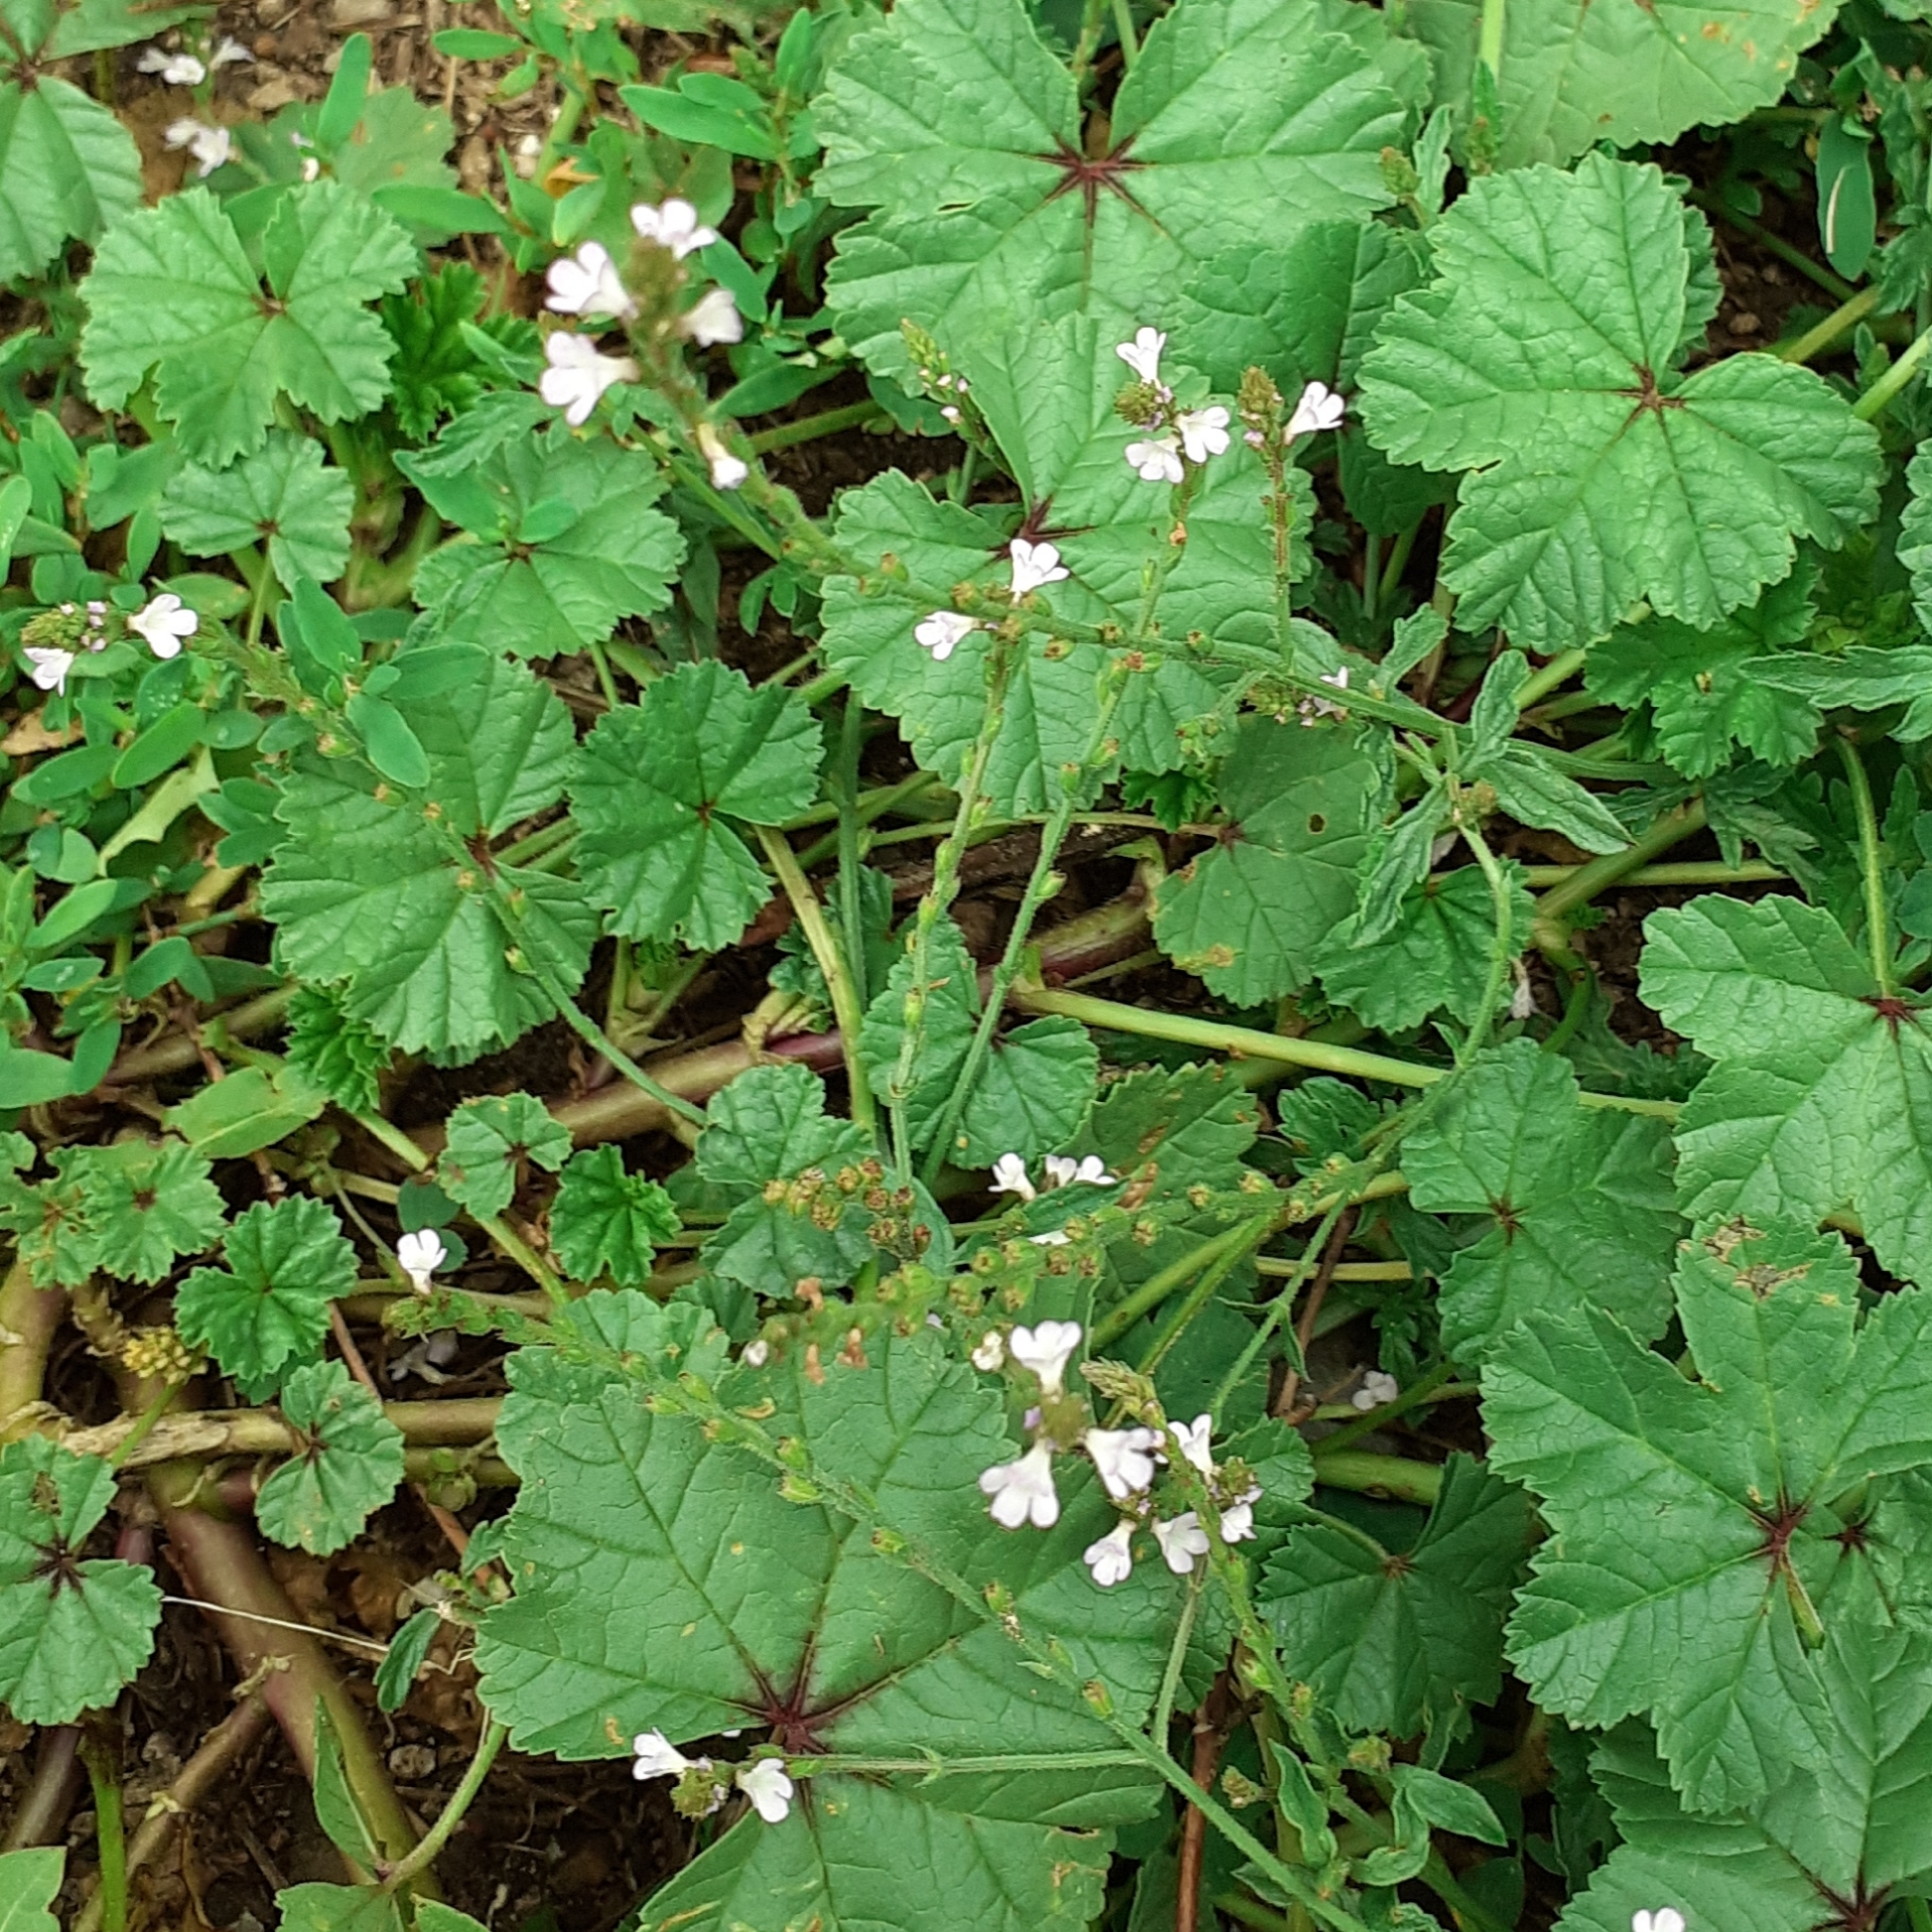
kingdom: Plantae
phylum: Tracheophyta
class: Magnoliopsida
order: Lamiales
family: Verbenaceae
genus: Verbena
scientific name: Verbena officinalis
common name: Vervain
